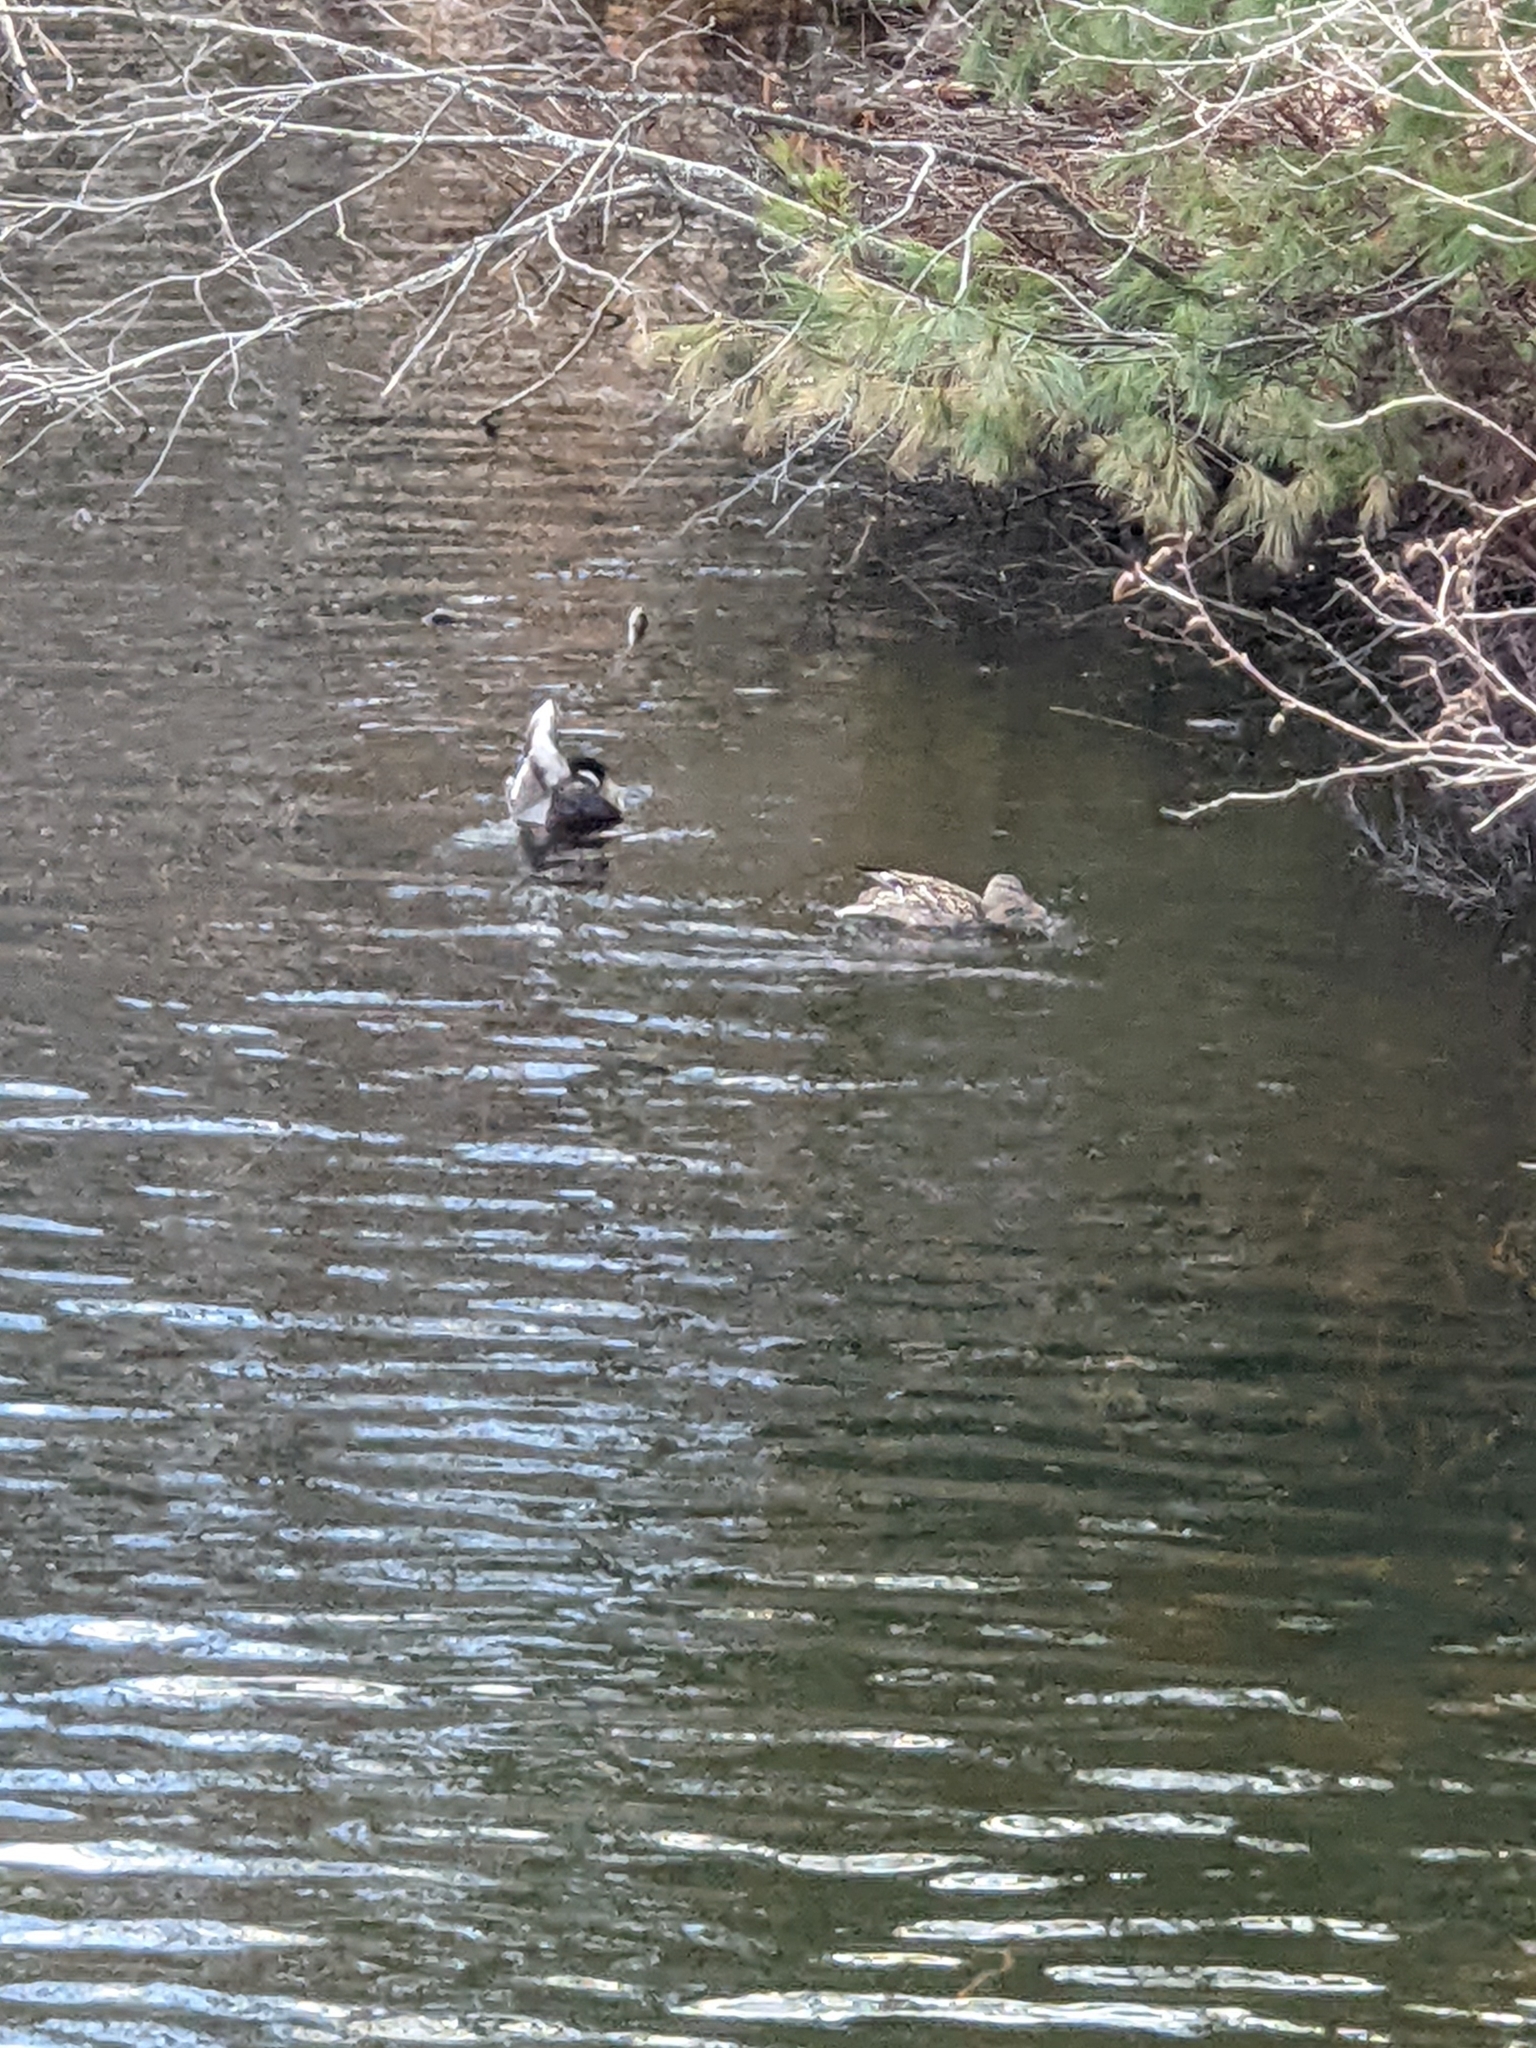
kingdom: Animalia
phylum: Chordata
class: Aves
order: Anseriformes
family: Anatidae
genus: Anas
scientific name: Anas platyrhynchos
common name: Mallard
